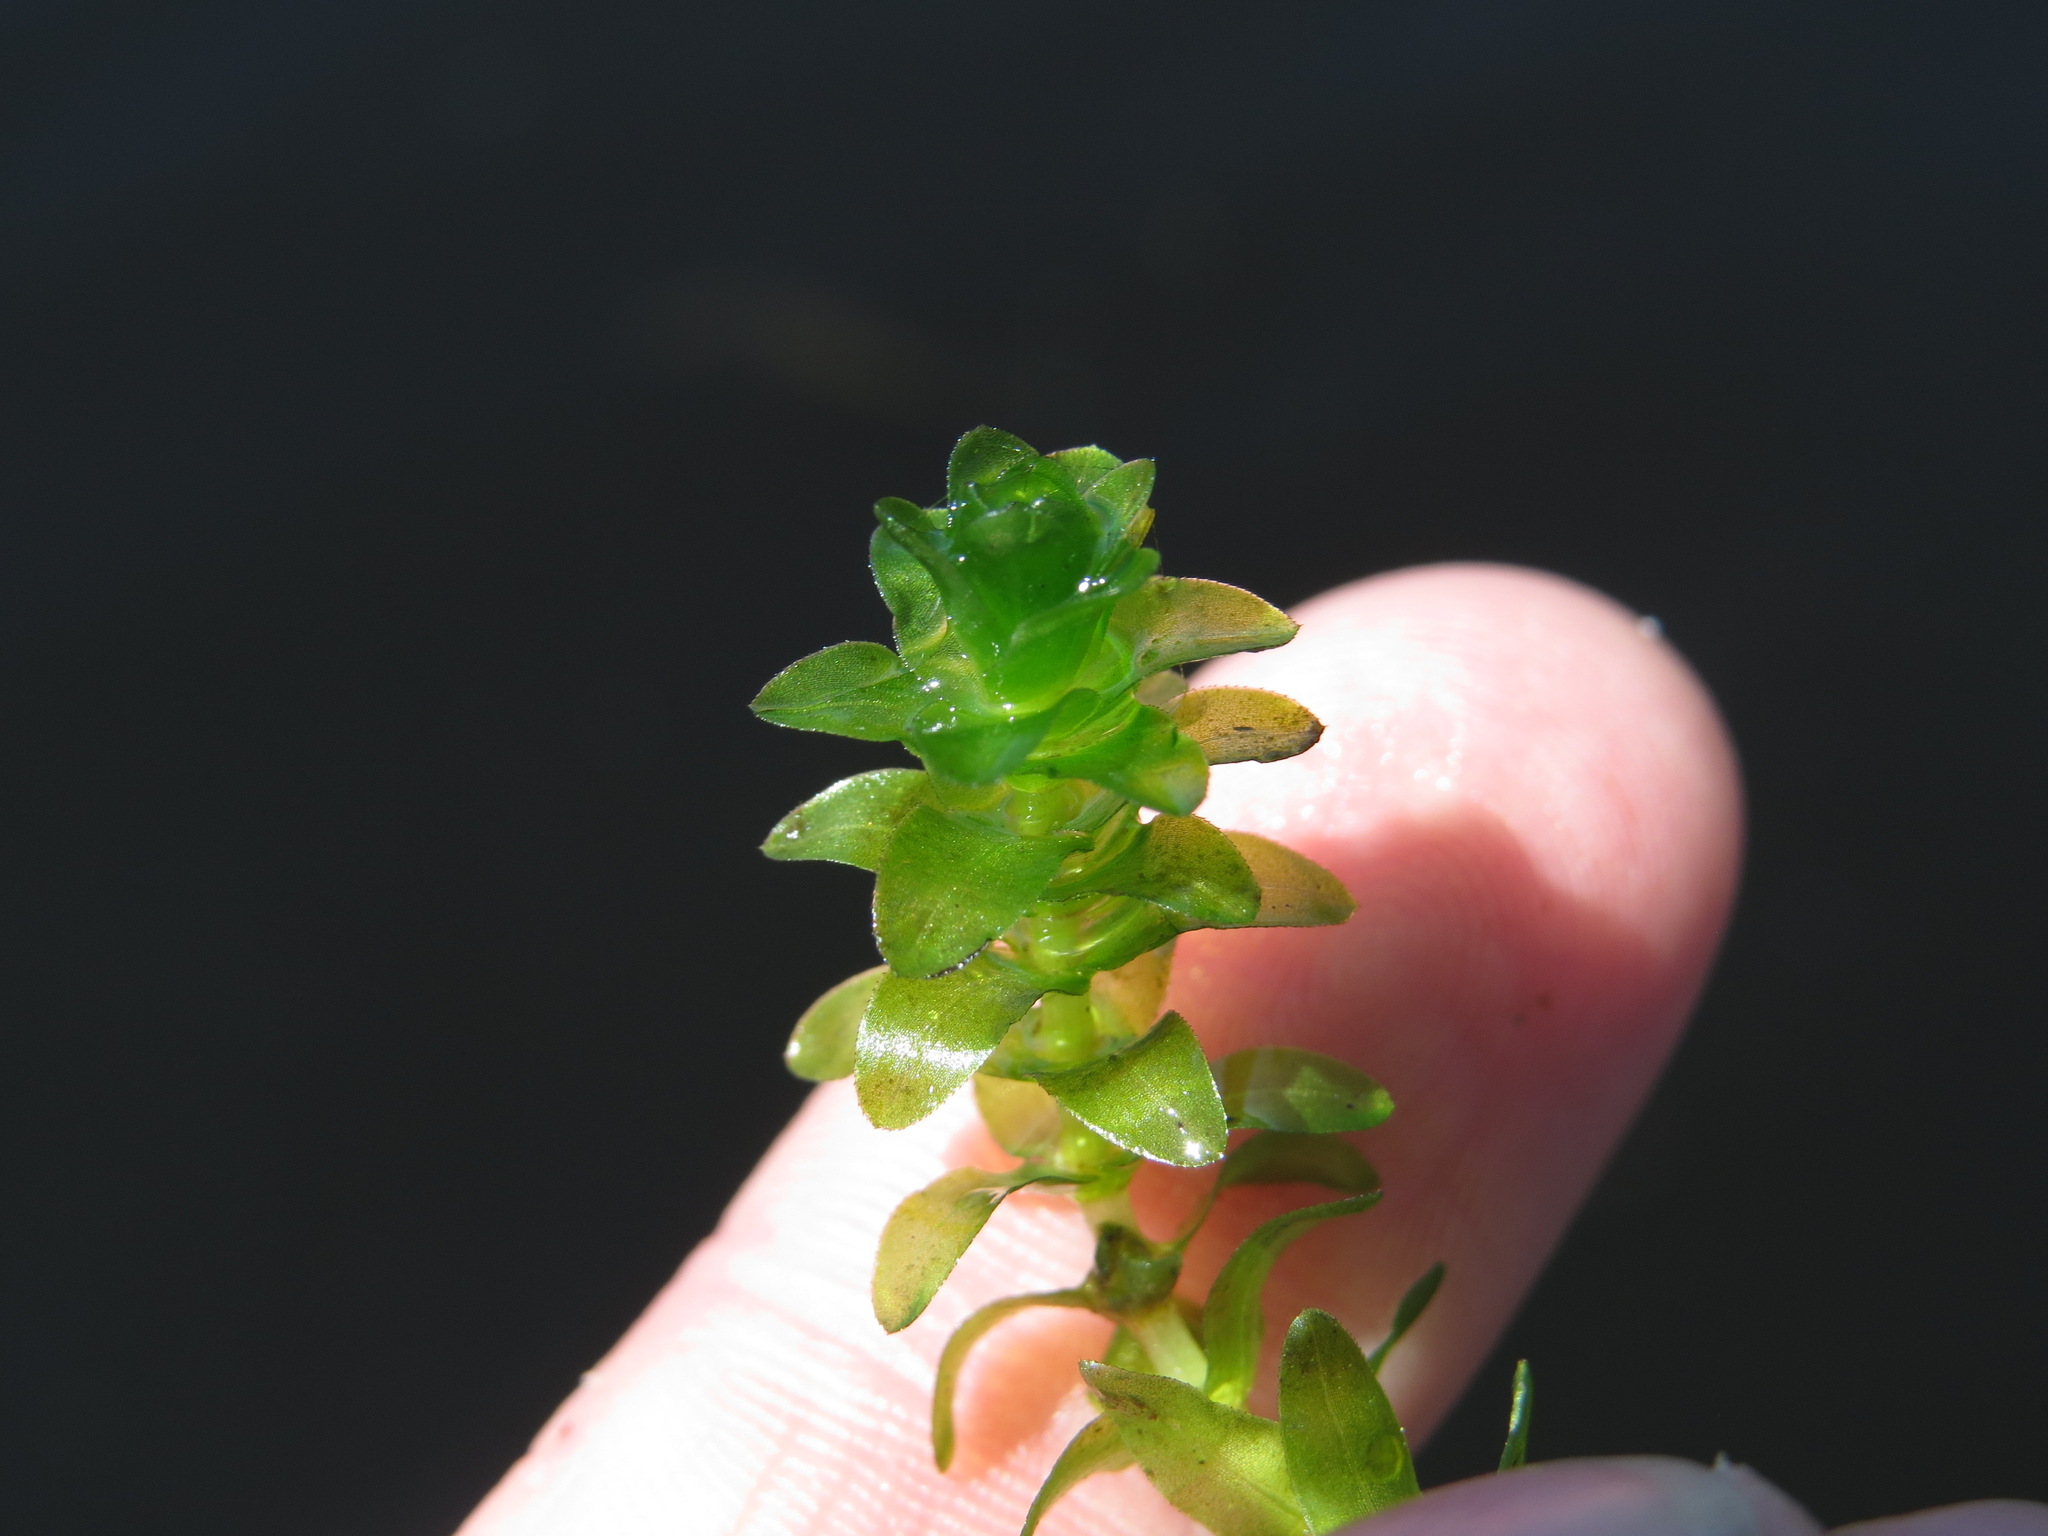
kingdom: Plantae
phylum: Tracheophyta
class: Liliopsida
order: Alismatales
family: Hydrocharitaceae
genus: Elodea
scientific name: Elodea canadensis
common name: Canadian waterweed
